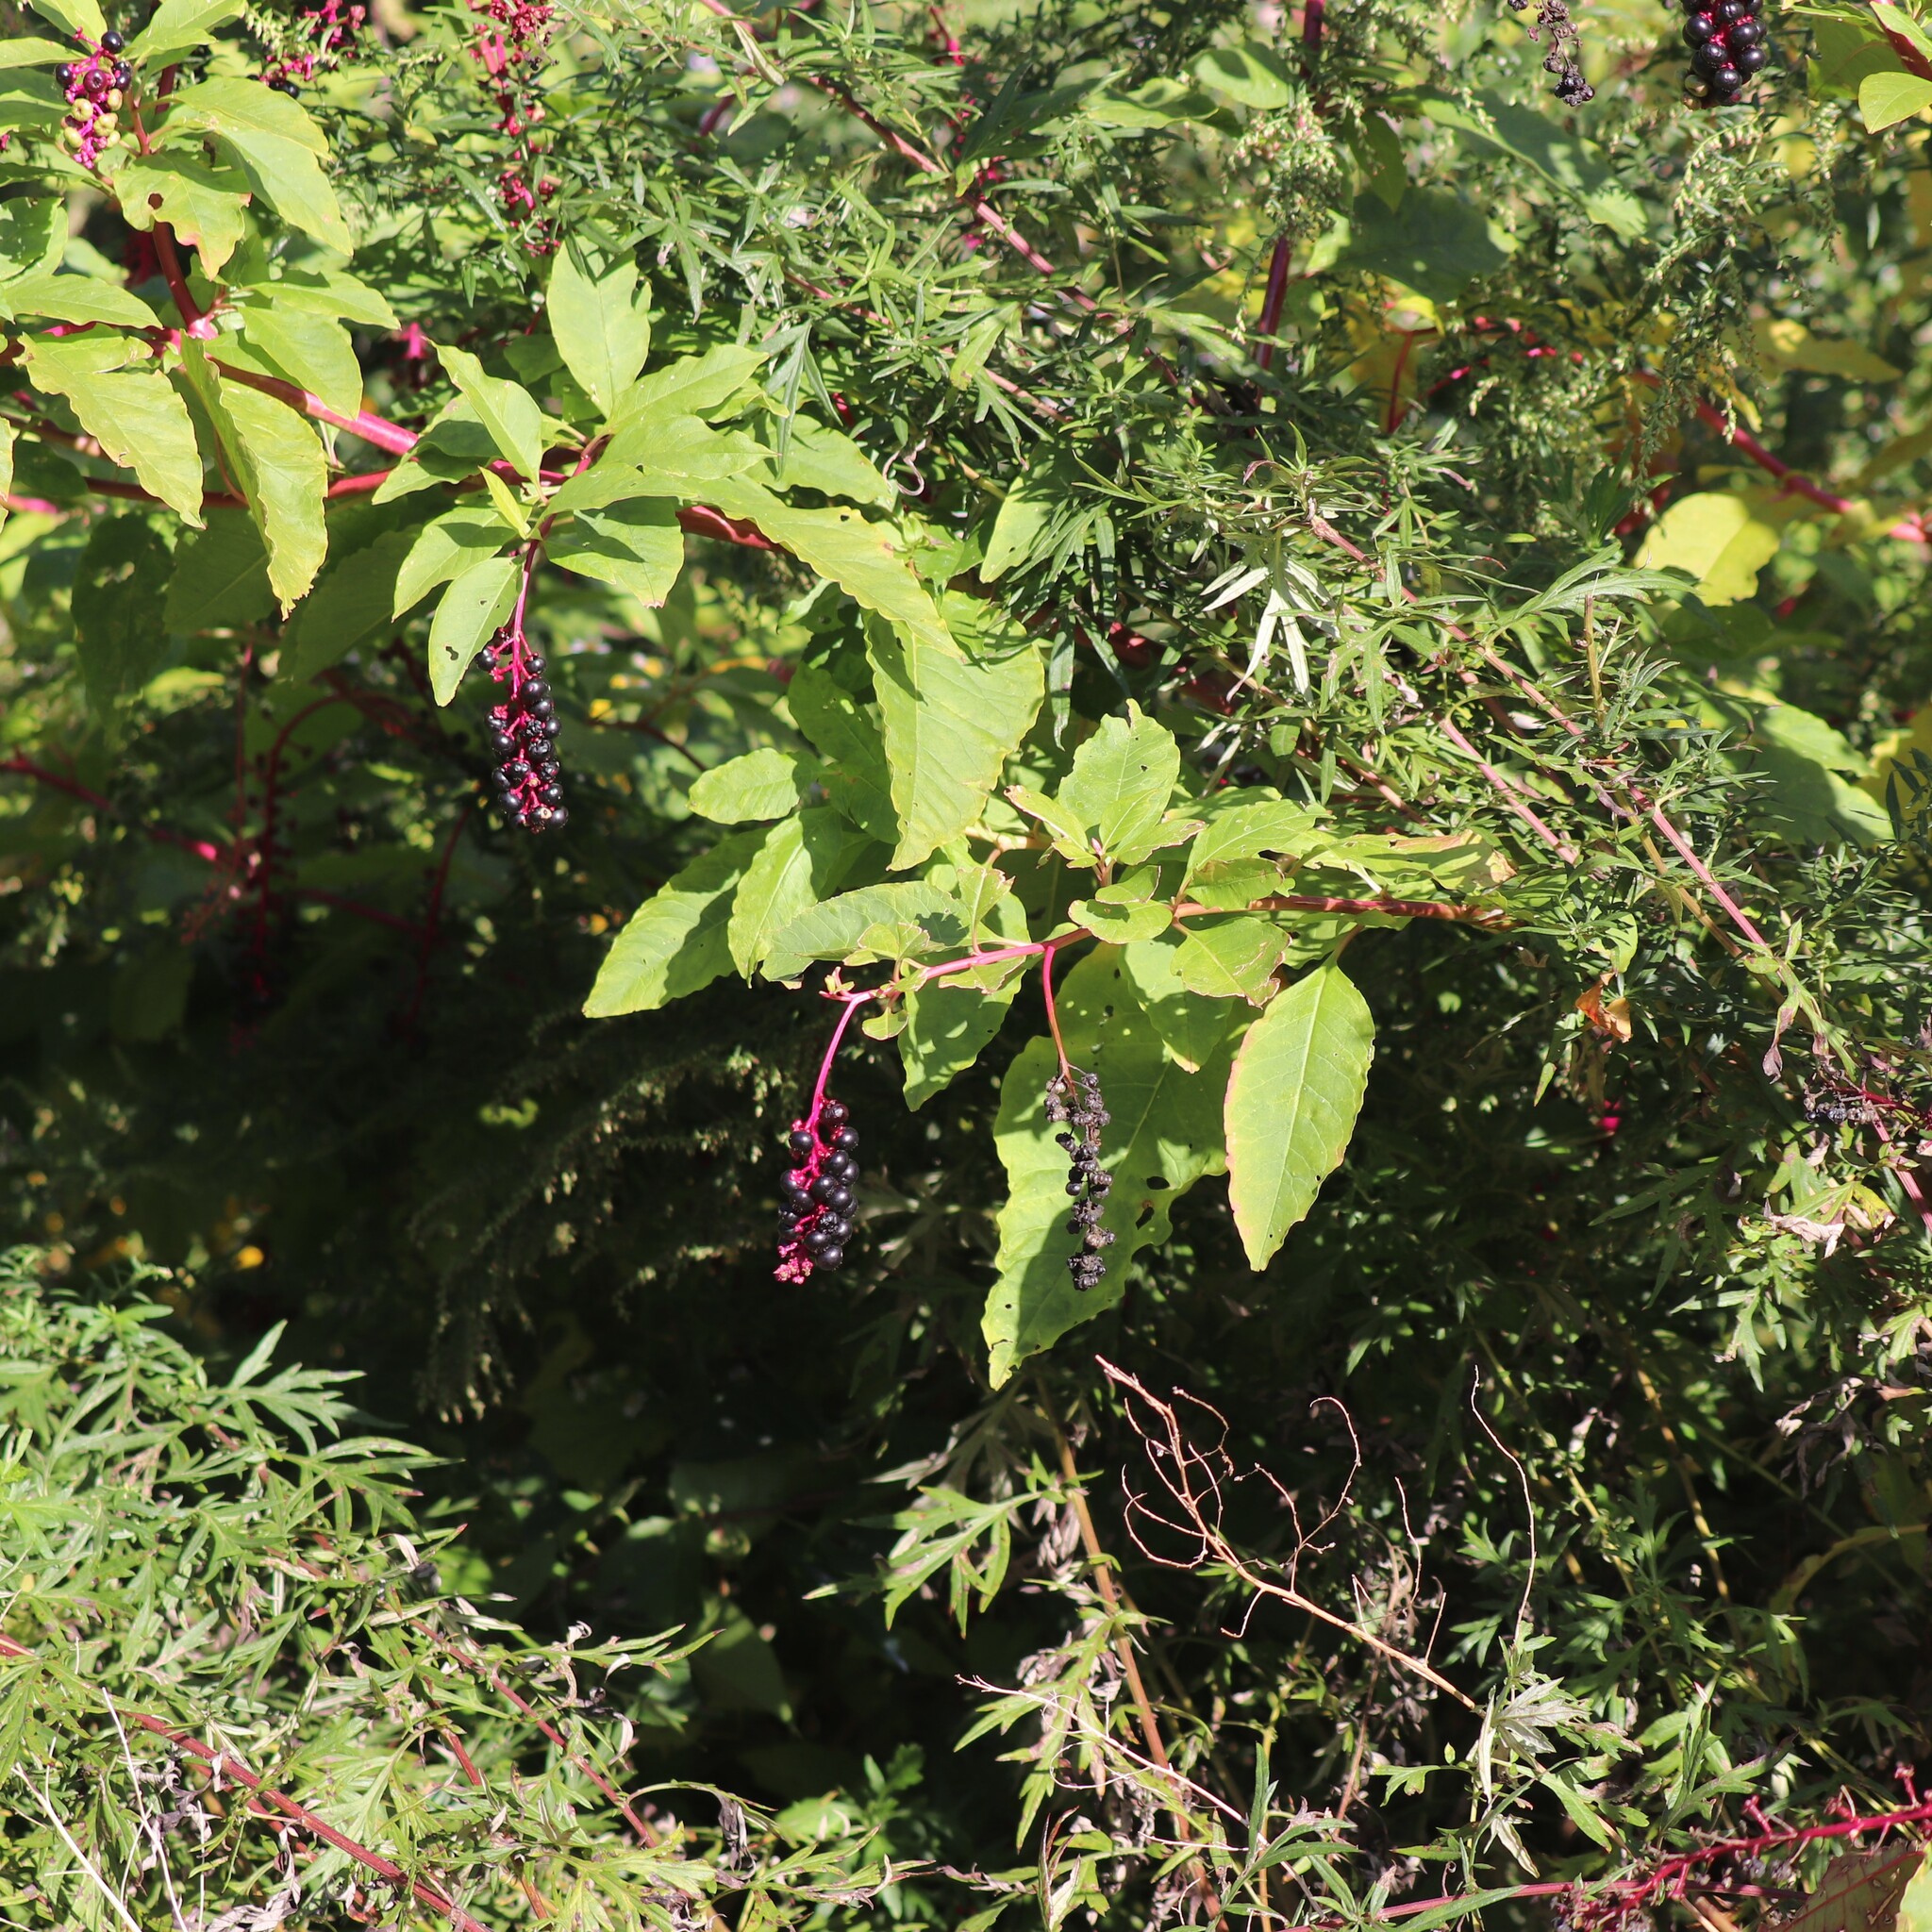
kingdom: Plantae
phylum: Tracheophyta
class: Magnoliopsida
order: Caryophyllales
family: Phytolaccaceae
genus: Phytolacca
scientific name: Phytolacca americana
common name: American pokeweed
